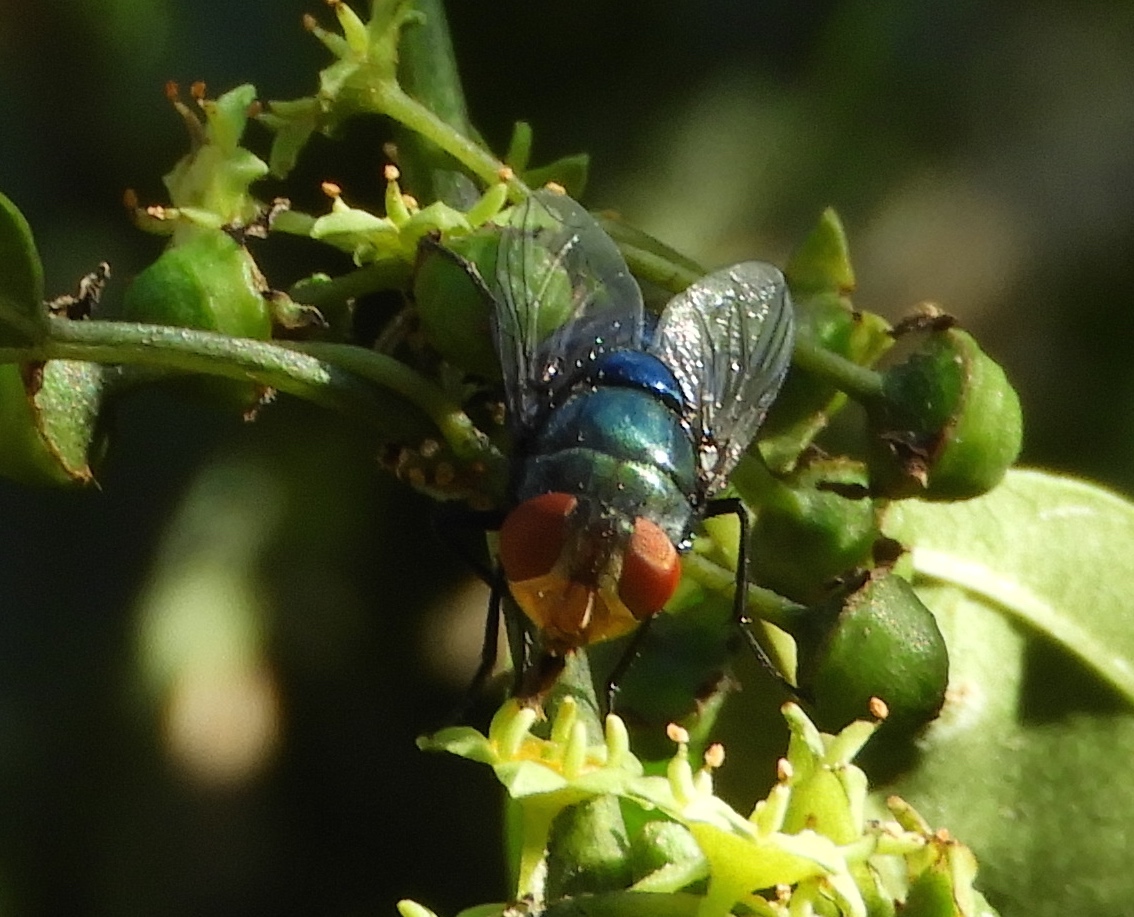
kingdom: Animalia
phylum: Arthropoda
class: Insecta
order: Diptera
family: Calliphoridae
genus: Chrysomya
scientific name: Chrysomya megacephala
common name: Blow fly
